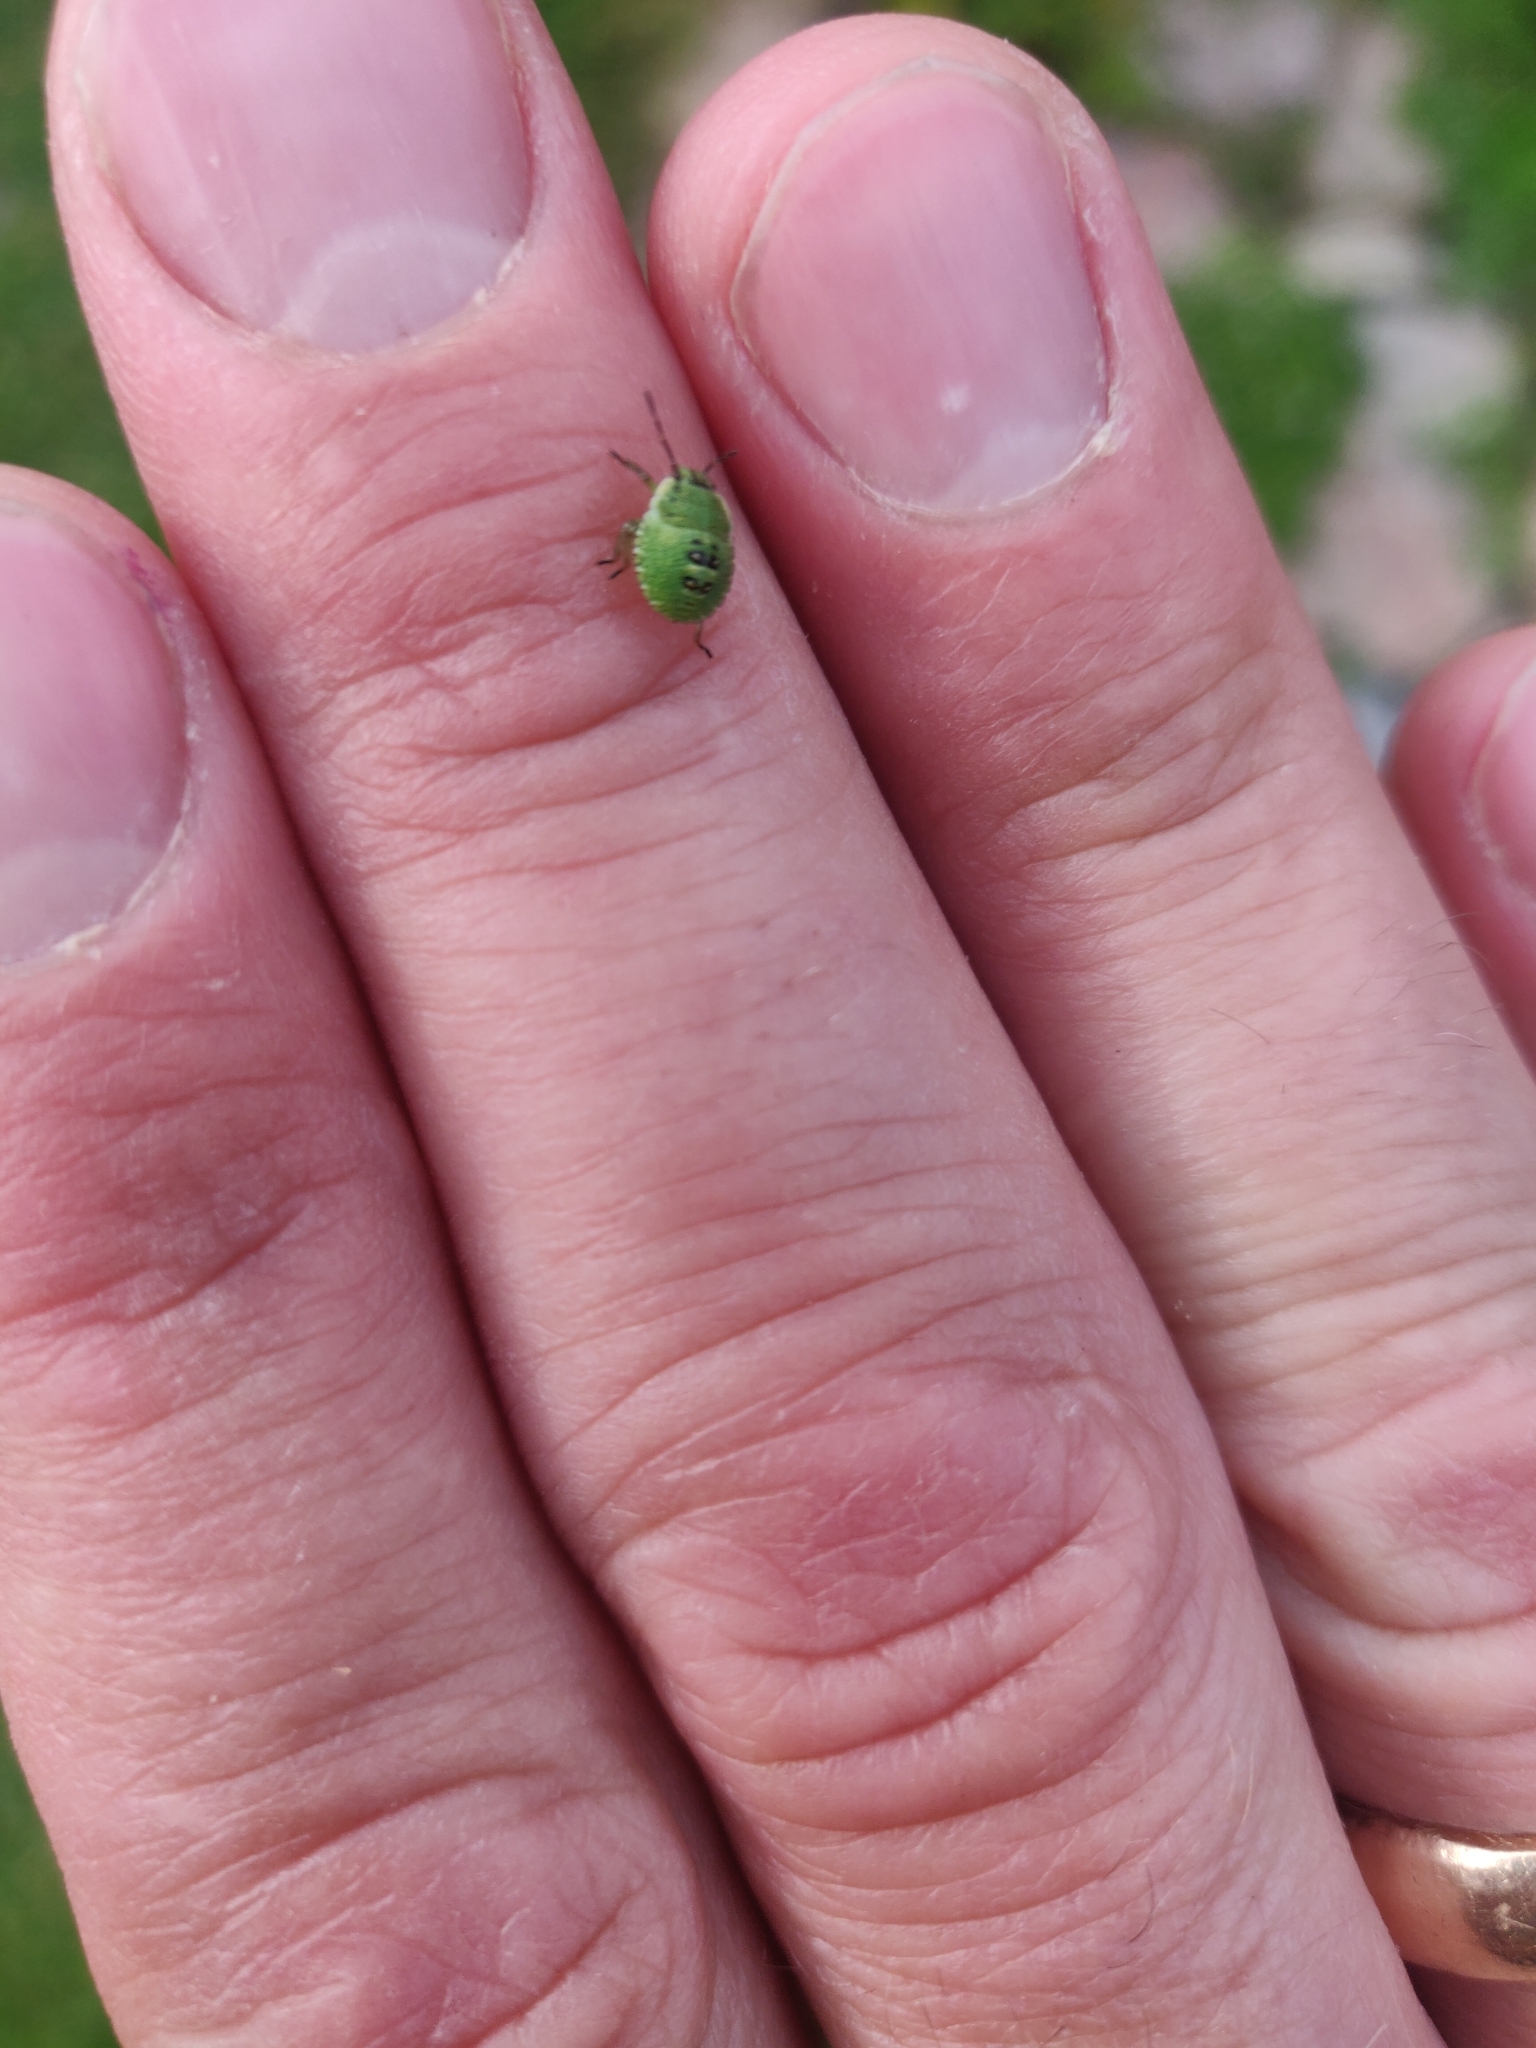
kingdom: Animalia
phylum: Arthropoda
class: Insecta
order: Hemiptera
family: Pentatomidae
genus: Palomena
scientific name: Palomena prasina
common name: Green shieldbug
